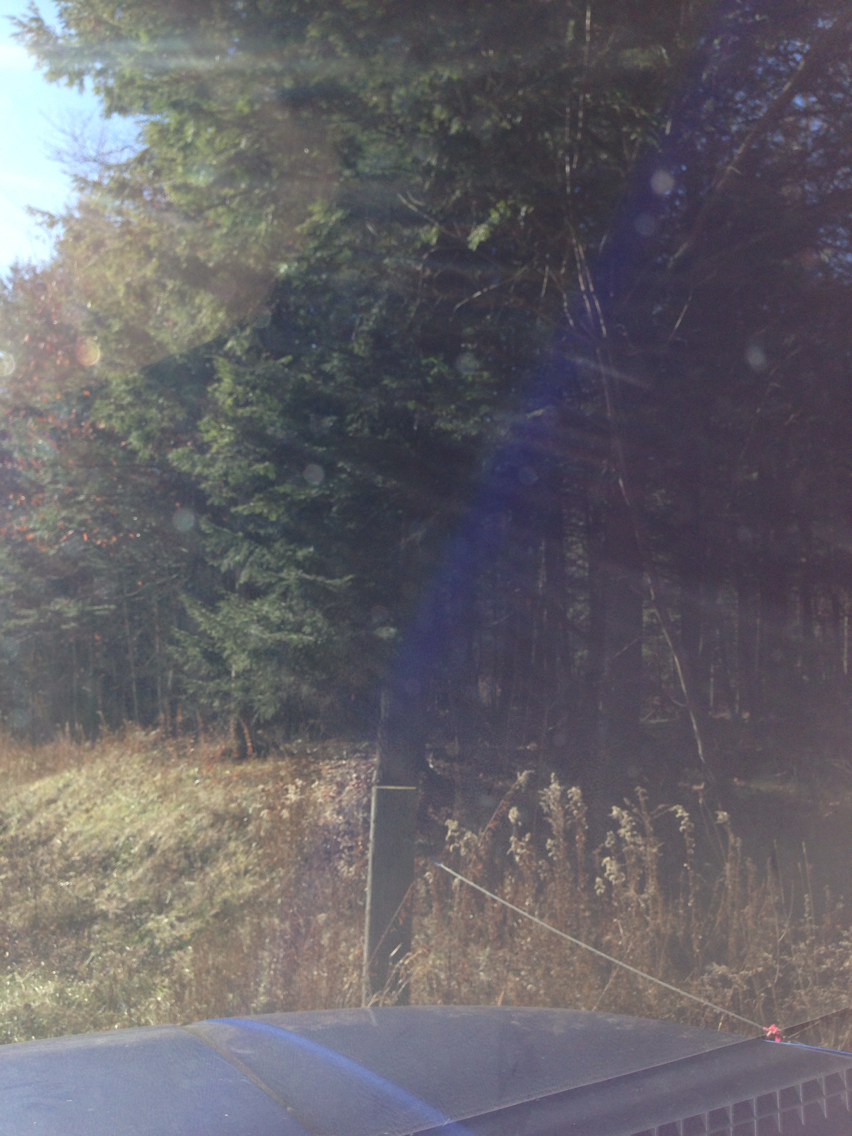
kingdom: Plantae
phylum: Tracheophyta
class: Pinopsida
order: Pinales
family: Pinaceae
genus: Tsuga
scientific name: Tsuga canadensis
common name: Eastern hemlock
